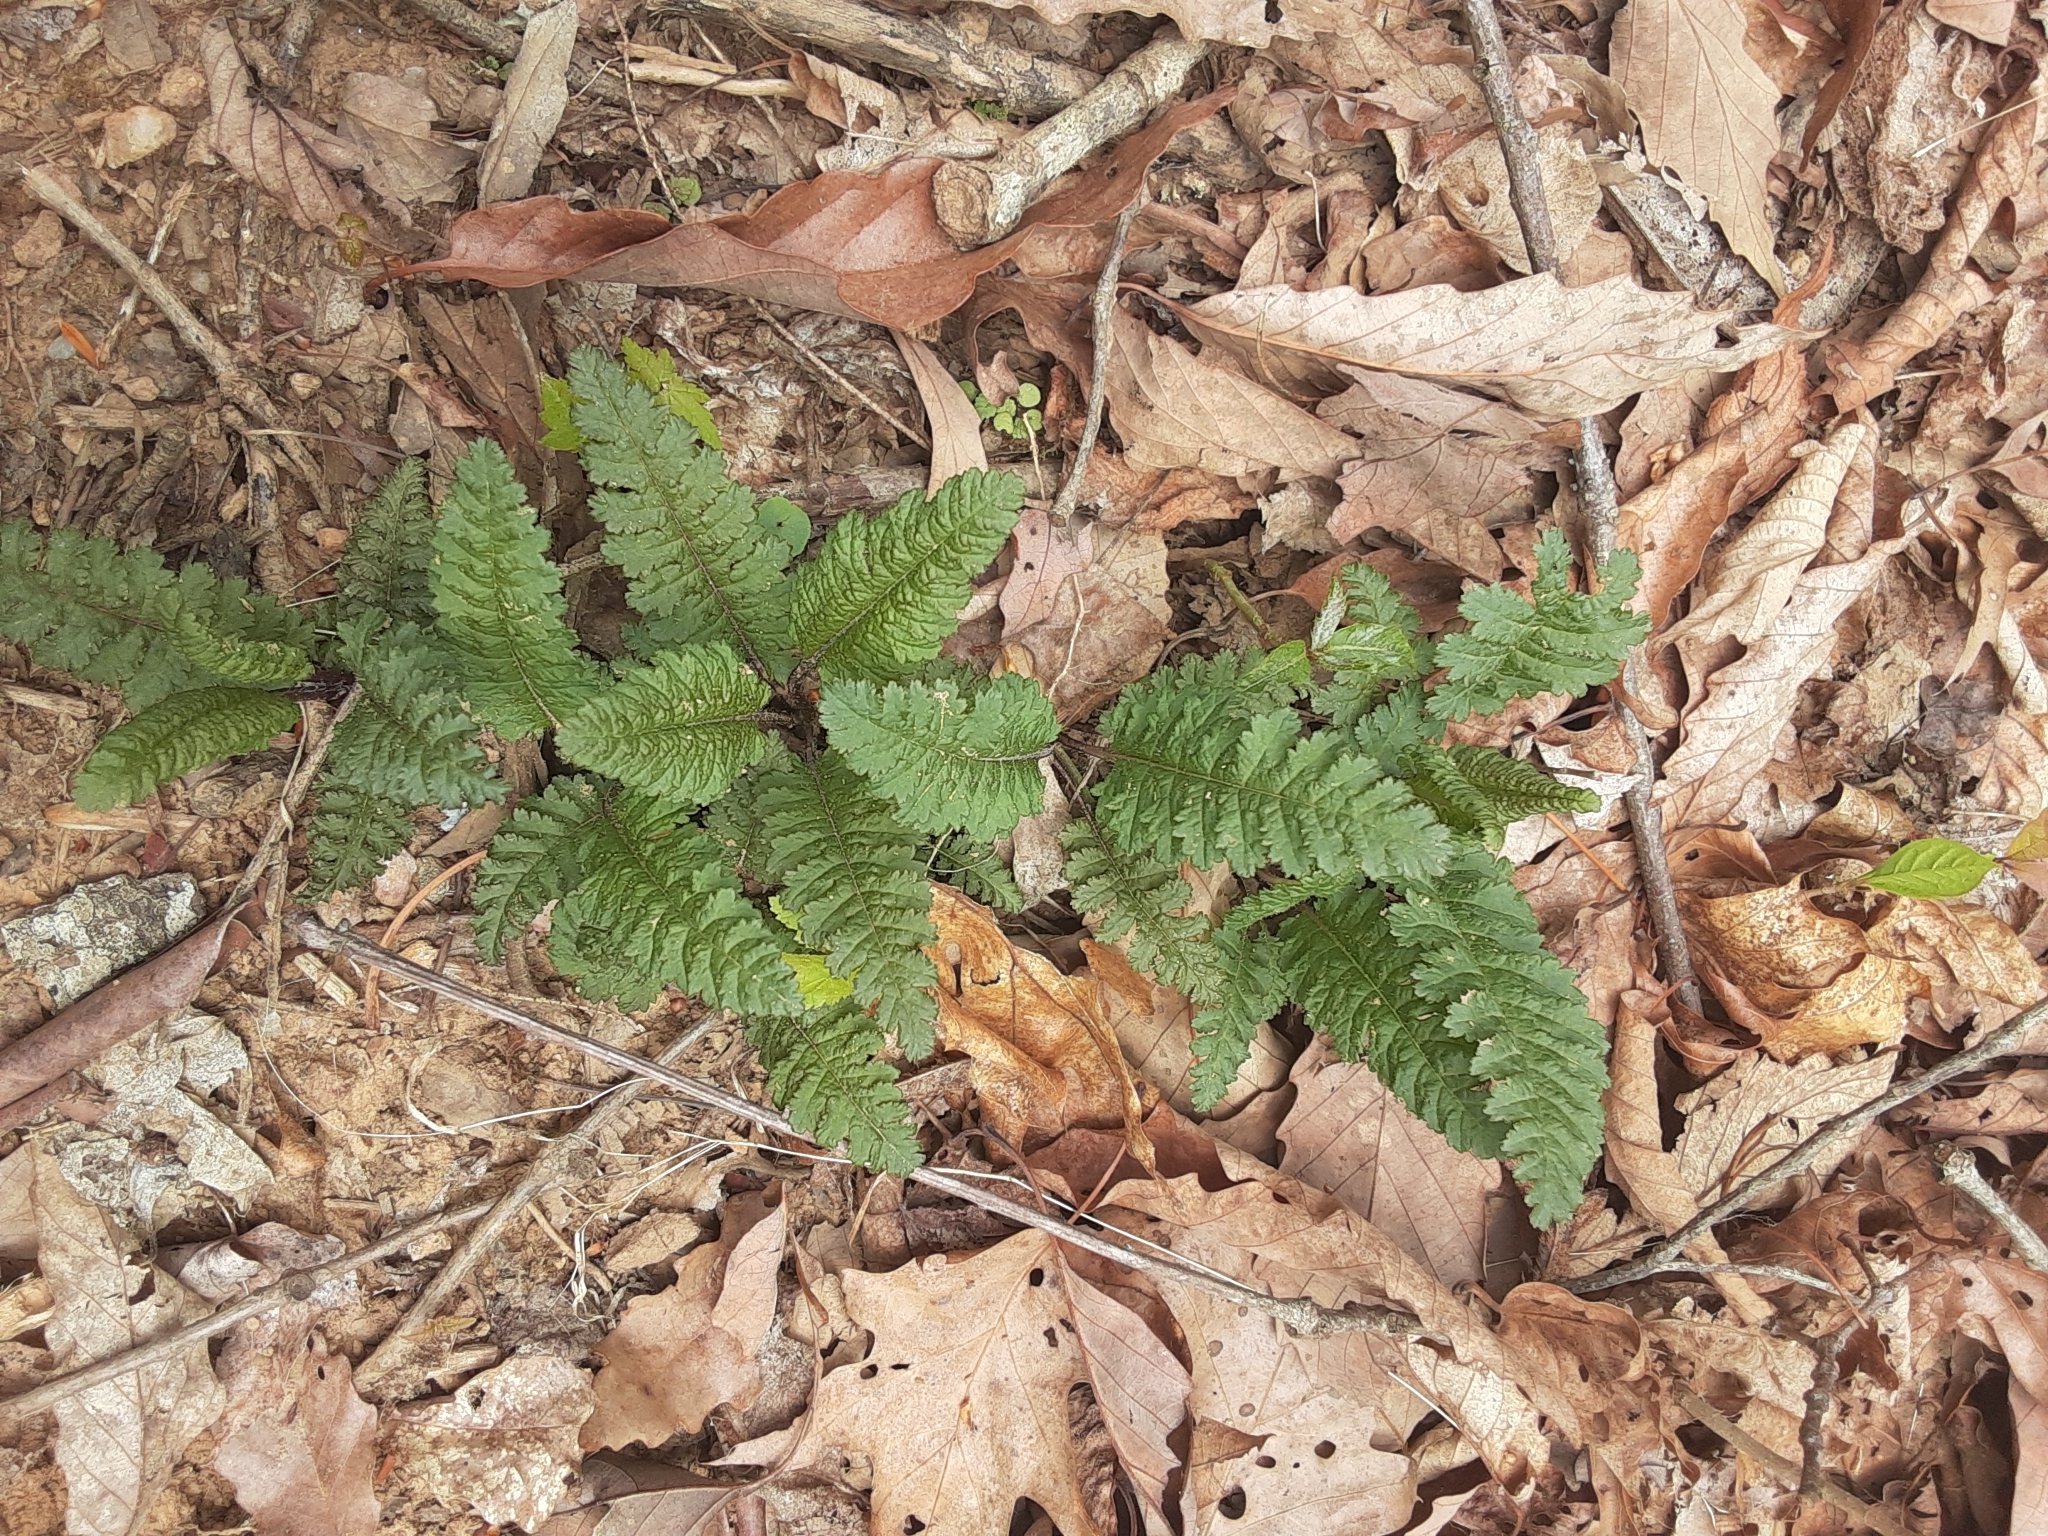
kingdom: Plantae
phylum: Tracheophyta
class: Magnoliopsida
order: Lamiales
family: Orobanchaceae
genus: Pedicularis
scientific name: Pedicularis canadensis
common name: Early lousewort
